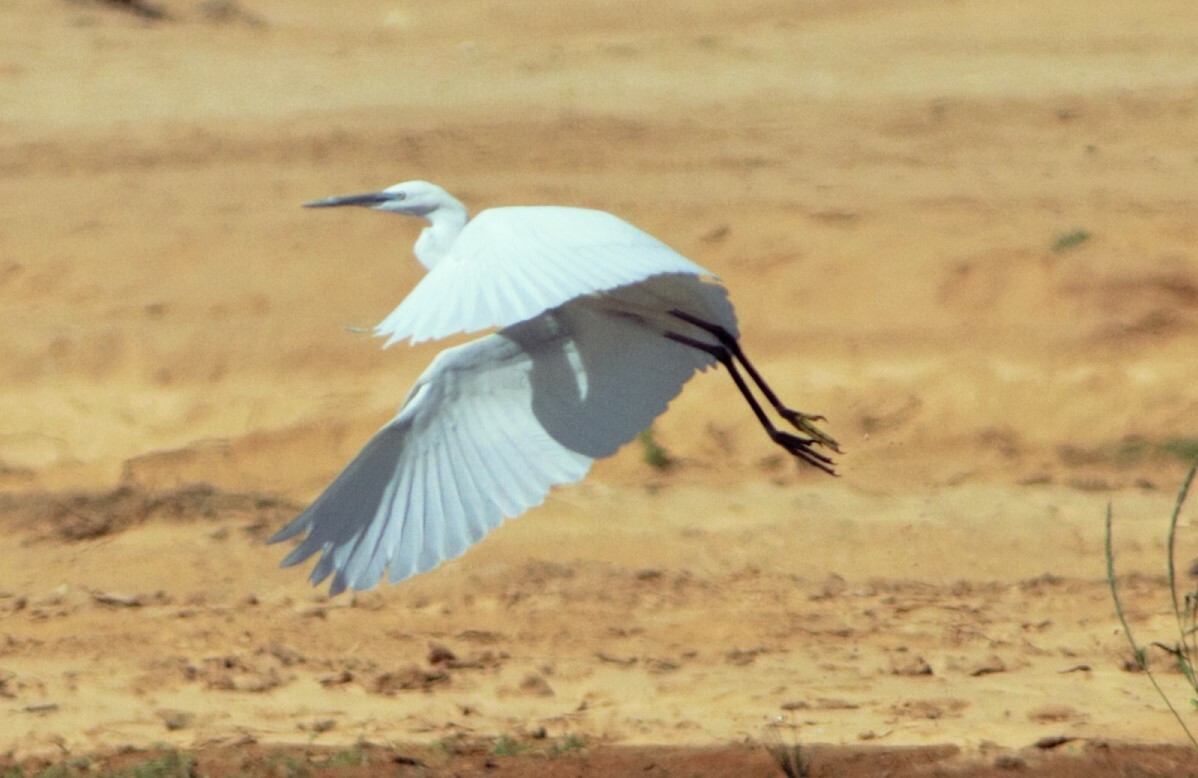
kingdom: Animalia
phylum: Chordata
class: Aves
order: Pelecaniformes
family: Ardeidae
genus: Egretta
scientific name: Egretta garzetta
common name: Little egret
